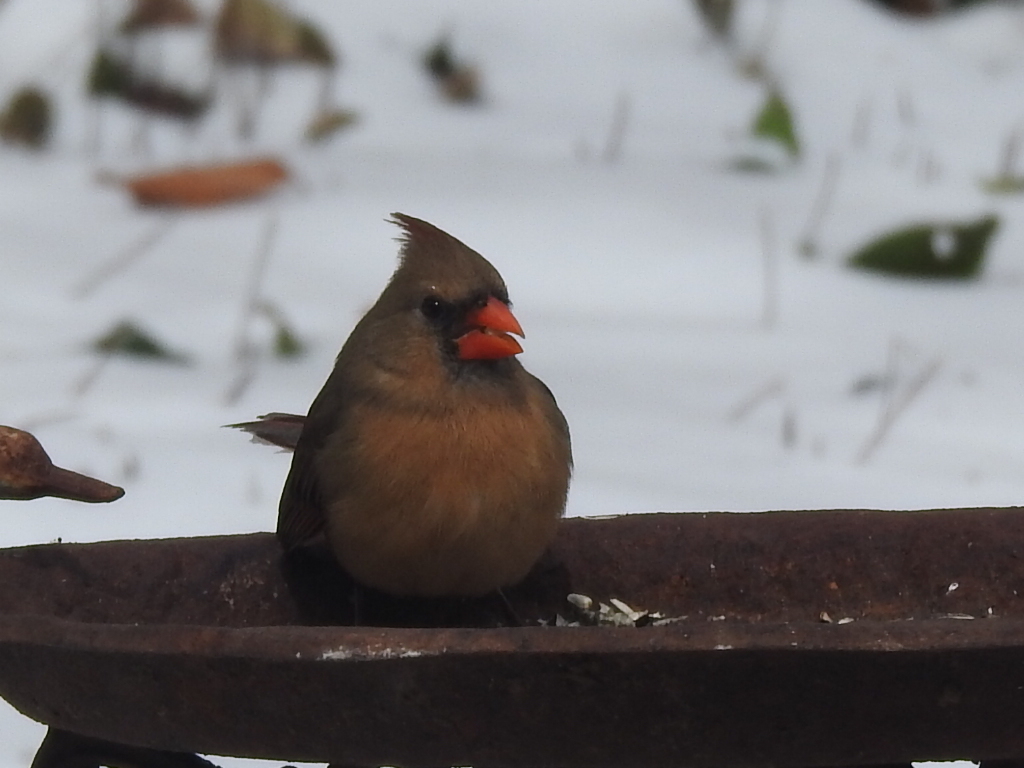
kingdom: Animalia
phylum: Chordata
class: Aves
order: Passeriformes
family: Cardinalidae
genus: Cardinalis
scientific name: Cardinalis cardinalis
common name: Northern cardinal
